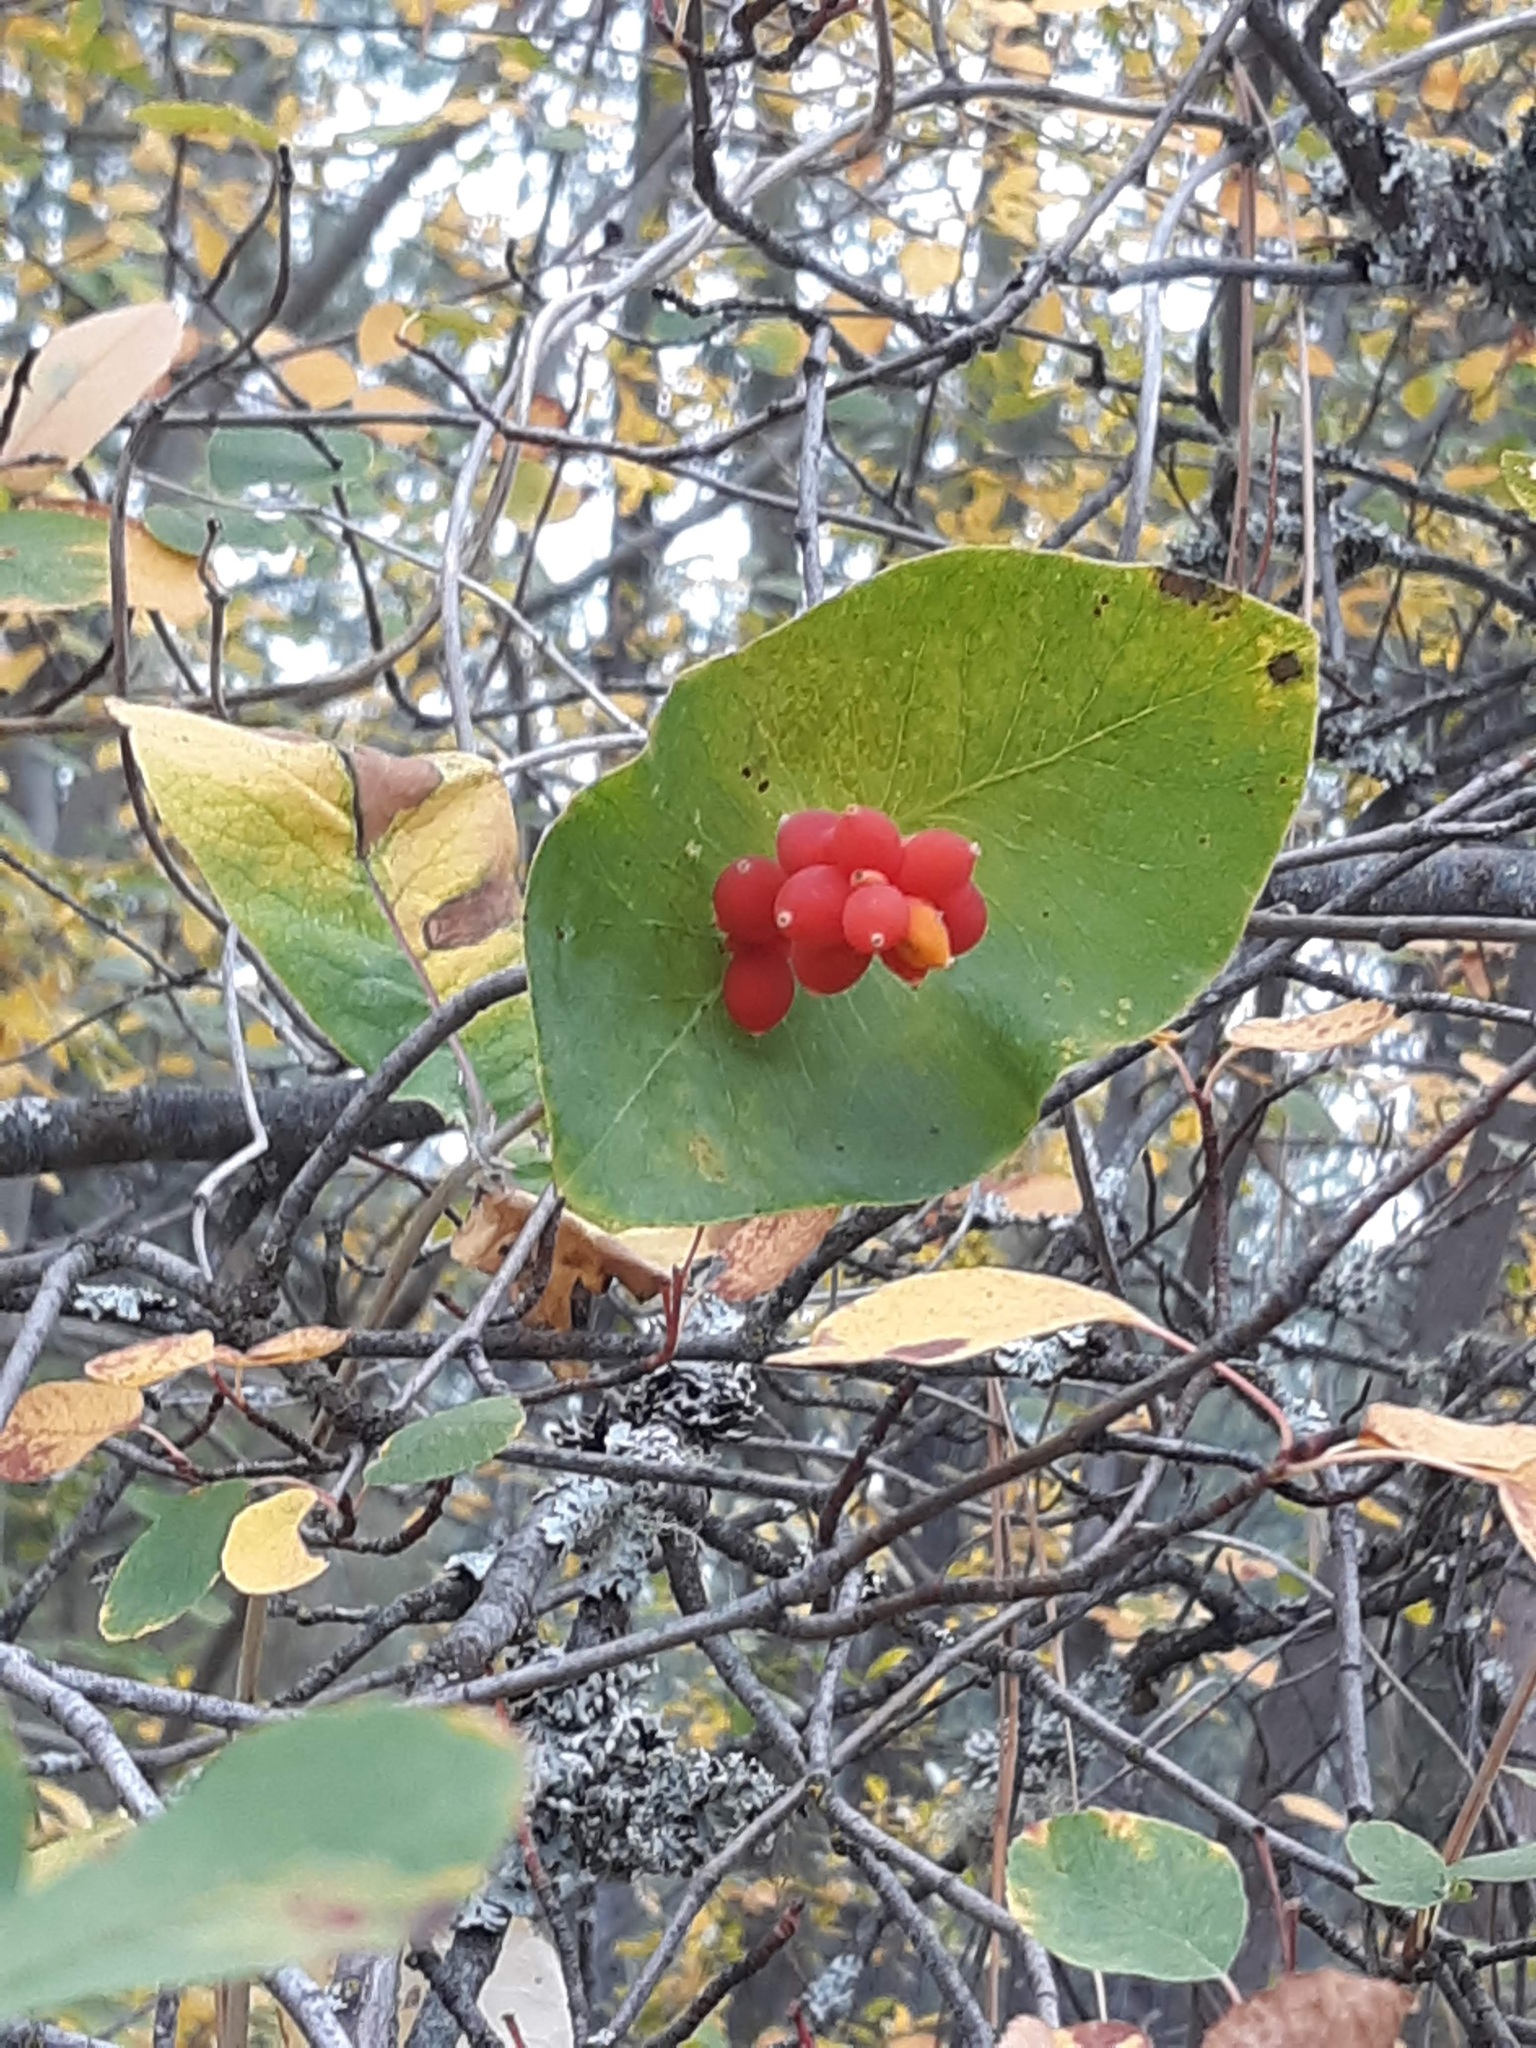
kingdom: Plantae
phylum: Tracheophyta
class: Magnoliopsida
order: Dipsacales
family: Caprifoliaceae
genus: Lonicera
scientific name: Lonicera ciliosa
